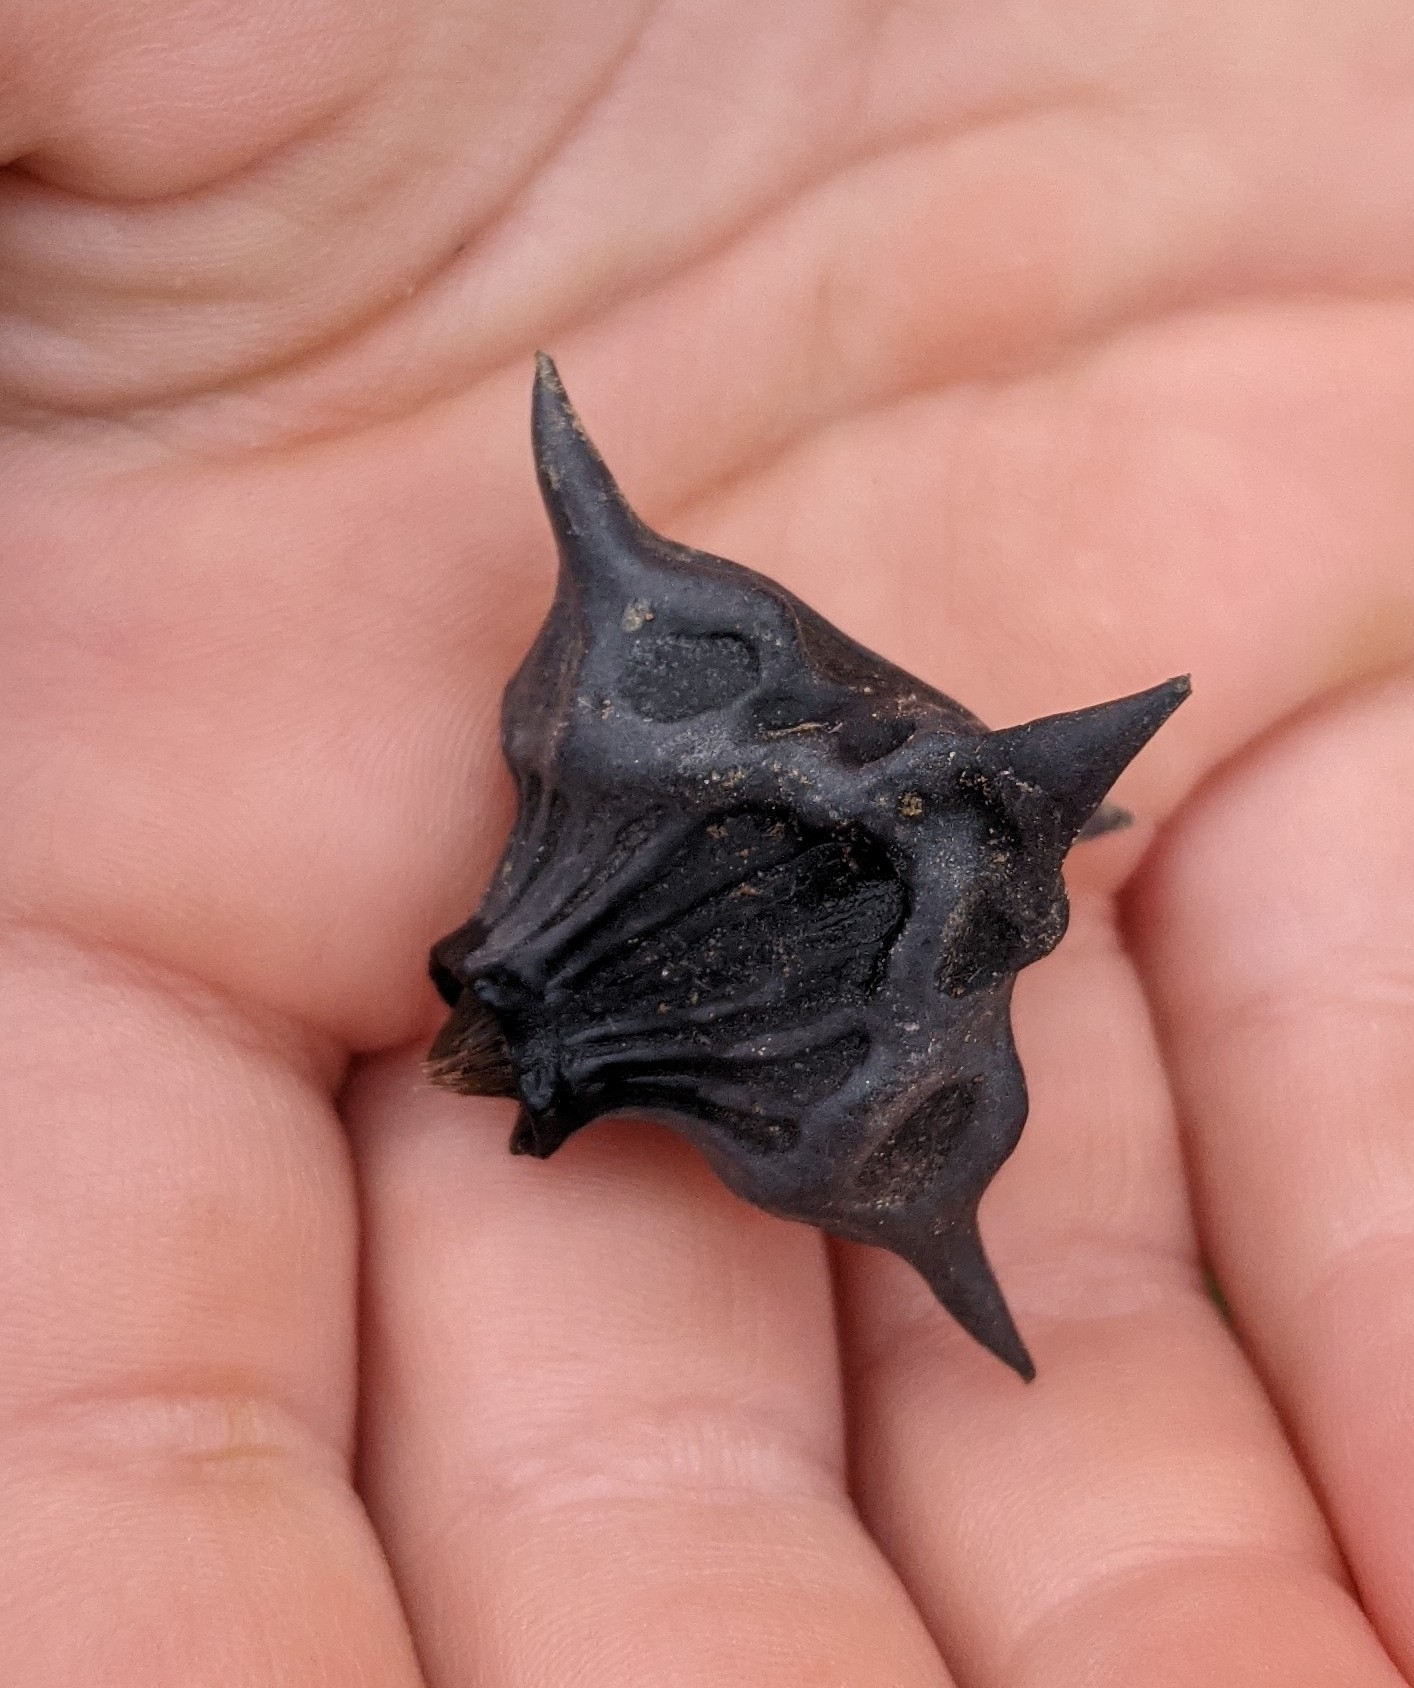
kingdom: Plantae
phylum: Tracheophyta
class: Magnoliopsida
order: Myrtales
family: Lythraceae
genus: Trapa
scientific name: Trapa natans
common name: Water chestnut
